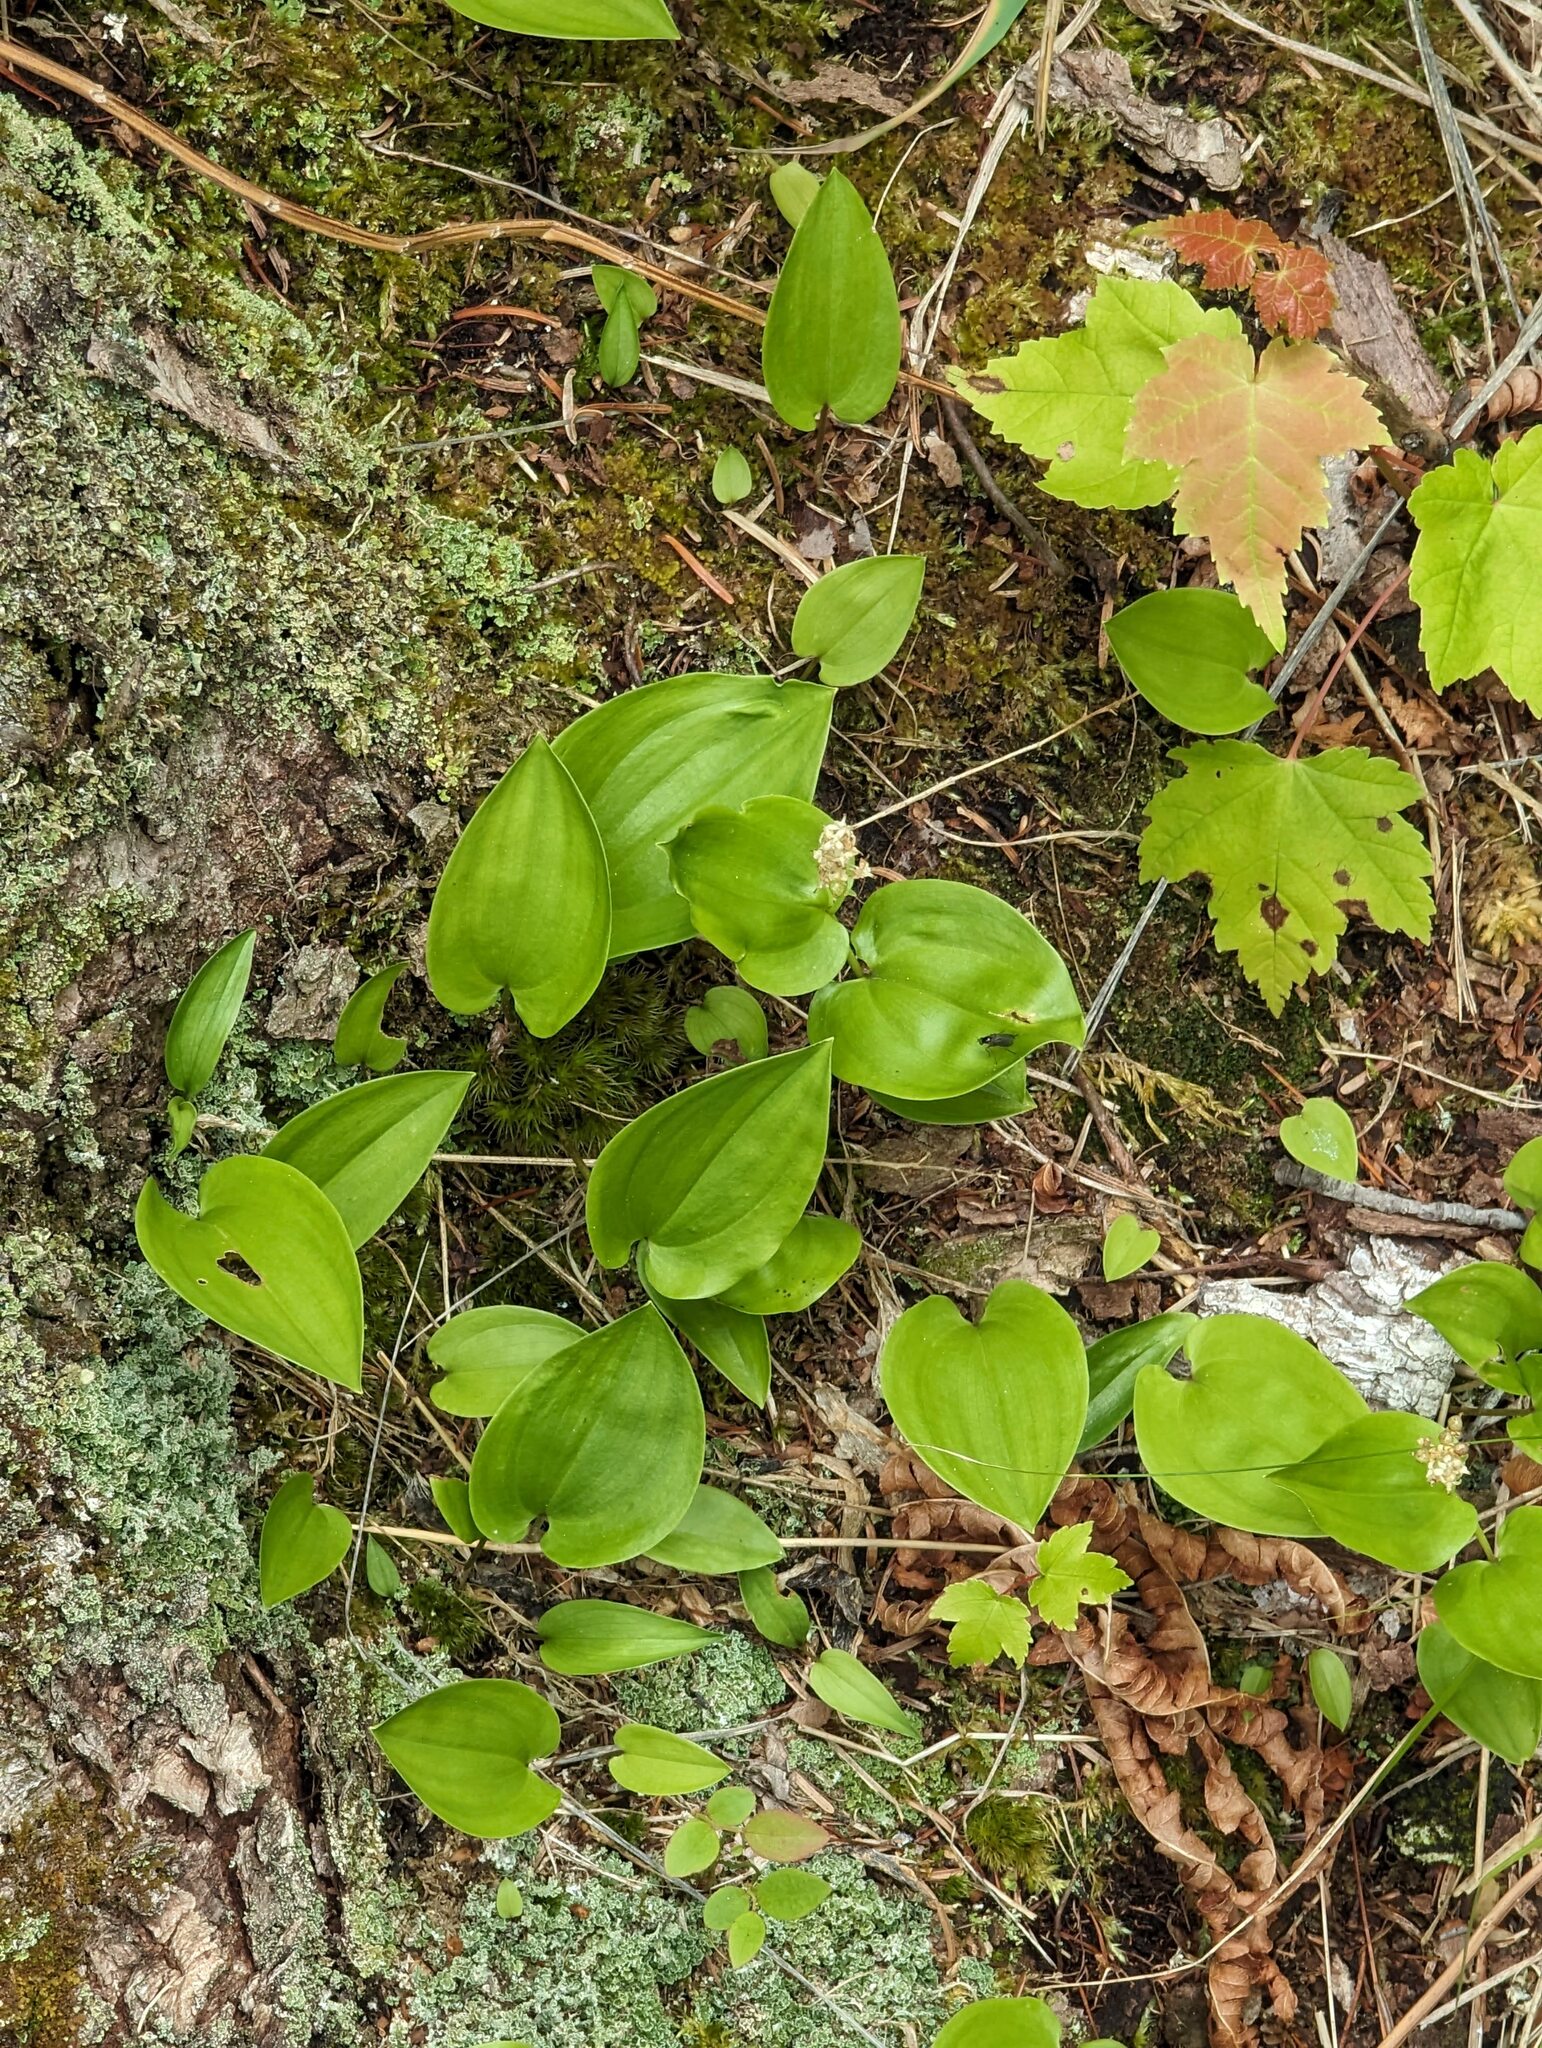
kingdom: Plantae
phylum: Tracheophyta
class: Liliopsida
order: Asparagales
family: Asparagaceae
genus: Maianthemum
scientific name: Maianthemum canadense
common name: False lily-of-the-valley
